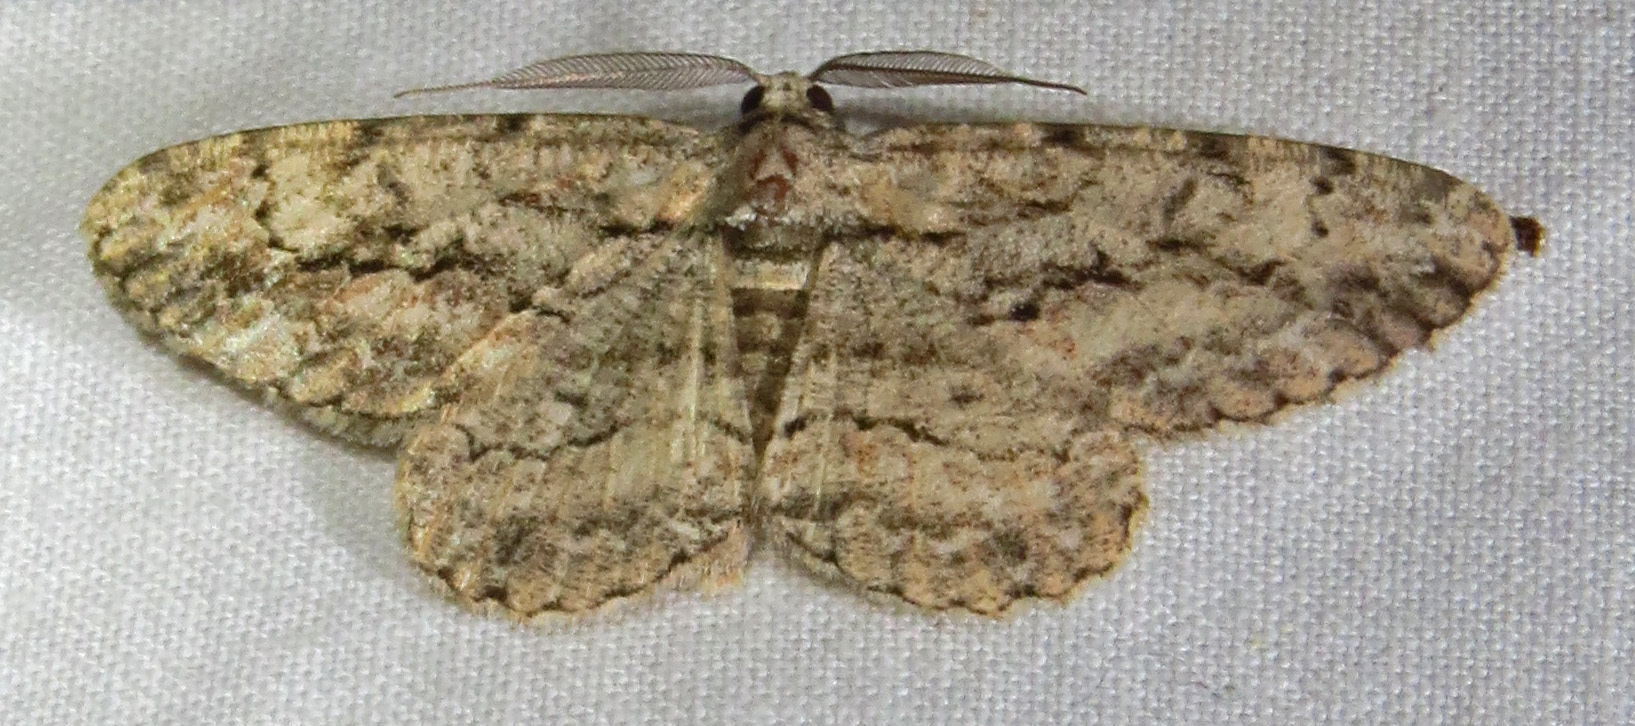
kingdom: Animalia
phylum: Arthropoda
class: Insecta
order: Lepidoptera
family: Geometridae
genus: Anavitrinella
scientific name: Anavitrinella pampinaria
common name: Common gray
